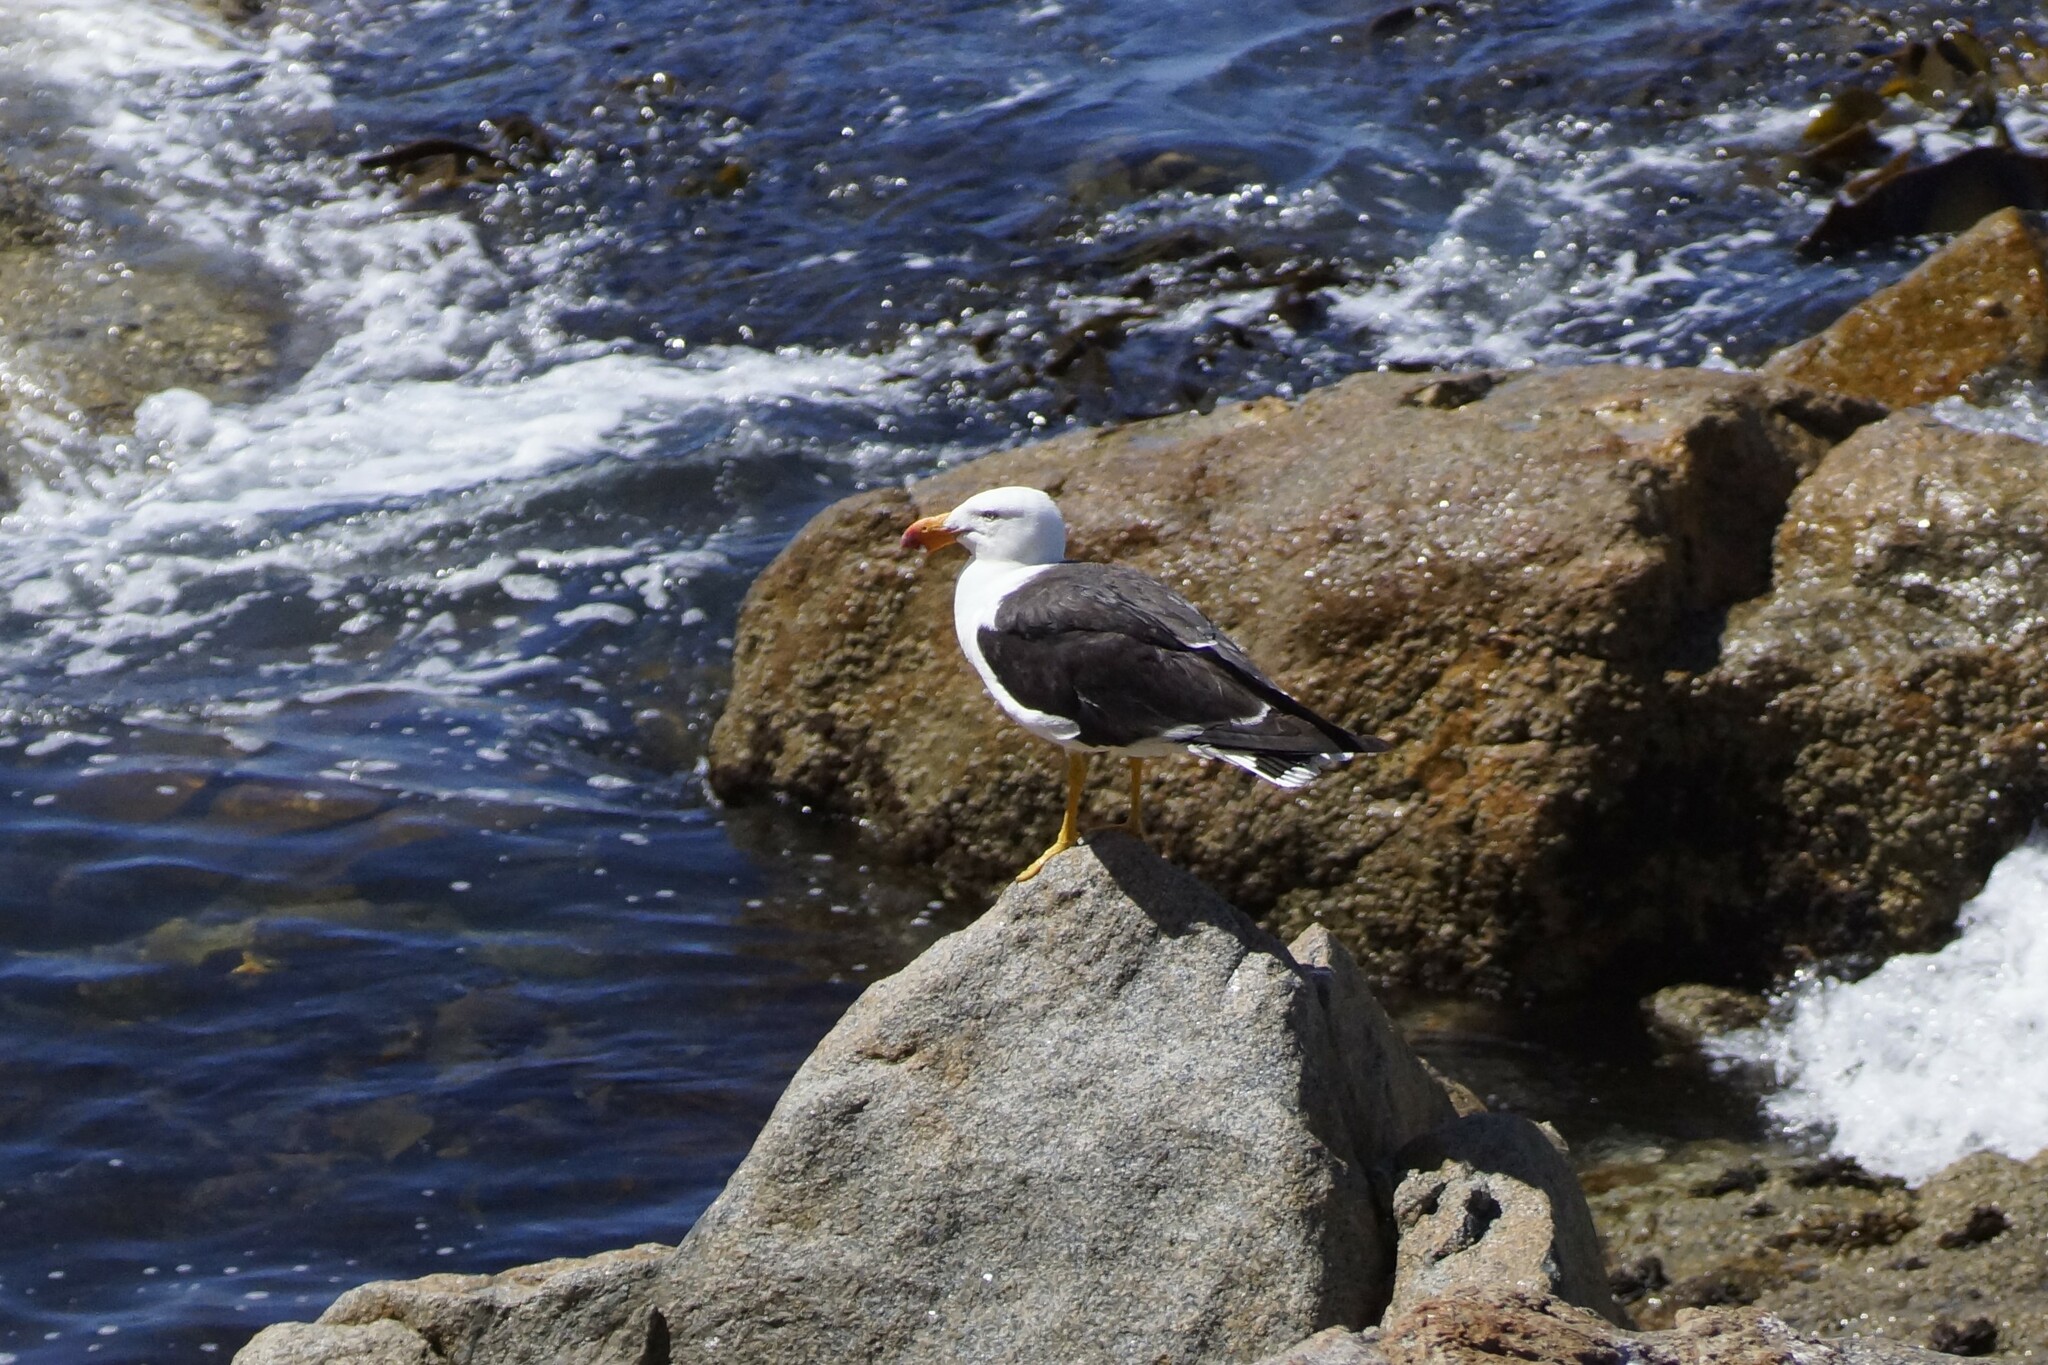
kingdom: Animalia
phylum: Chordata
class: Aves
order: Charadriiformes
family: Laridae
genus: Larus
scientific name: Larus pacificus
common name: Pacific gull
